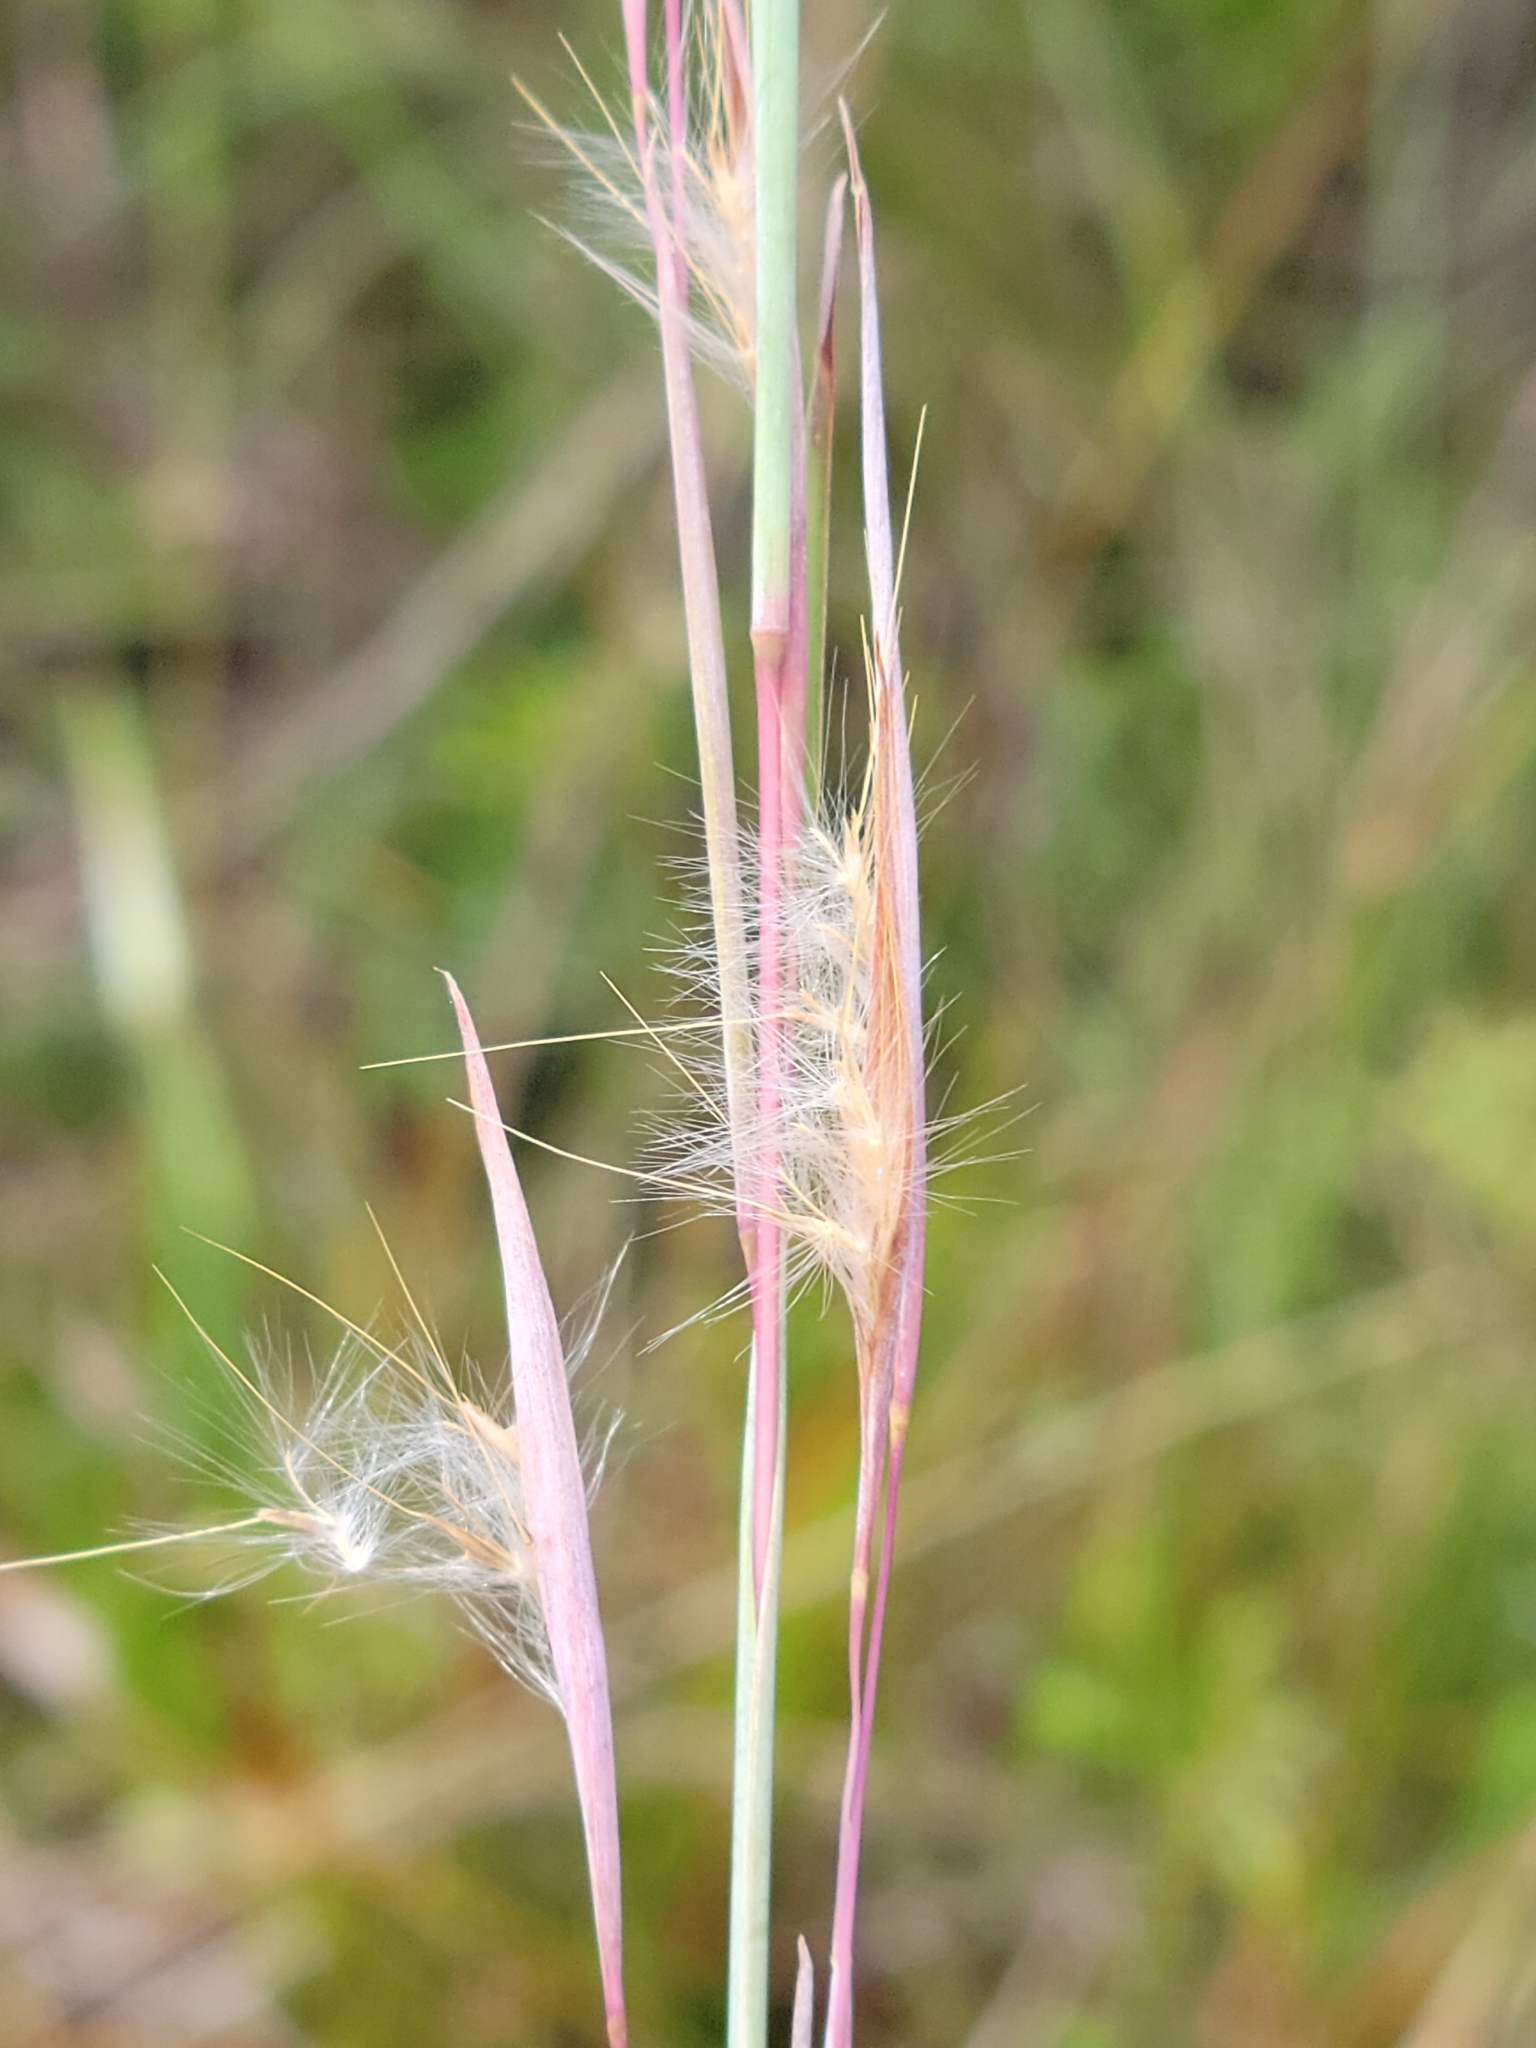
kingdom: Plantae
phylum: Tracheophyta
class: Liliopsida
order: Poales
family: Poaceae
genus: Andropogon
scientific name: Andropogon capillipes
